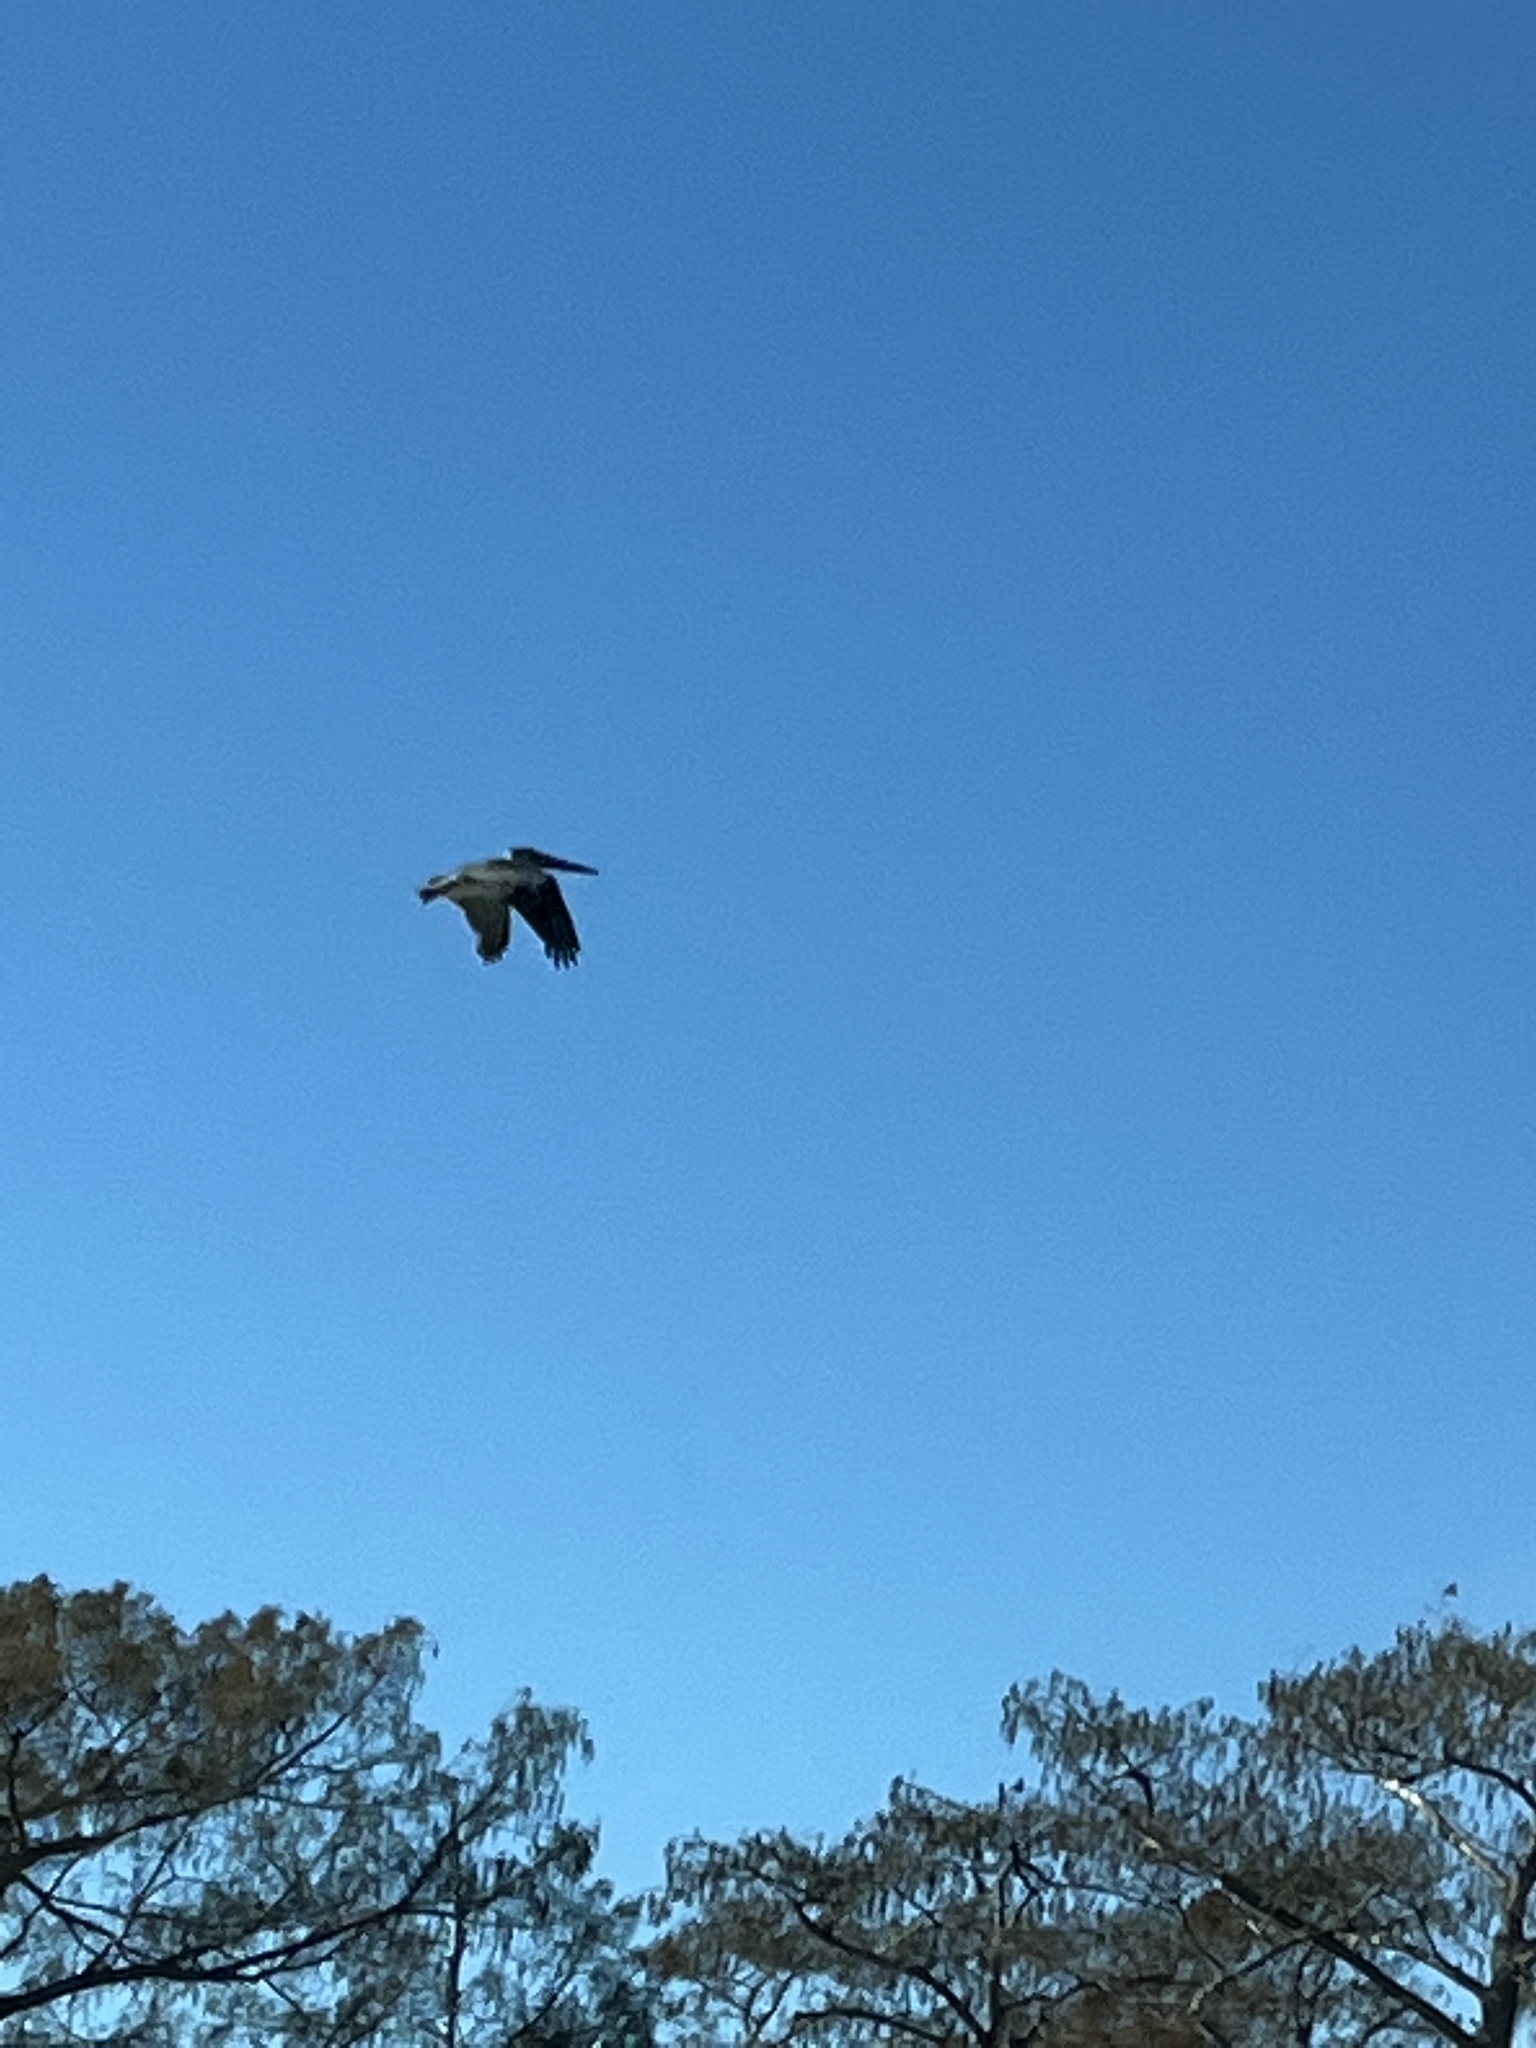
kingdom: Animalia
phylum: Chordata
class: Aves
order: Pelecaniformes
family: Pelecanidae
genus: Pelecanus
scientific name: Pelecanus occidentalis
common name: Brown pelican
